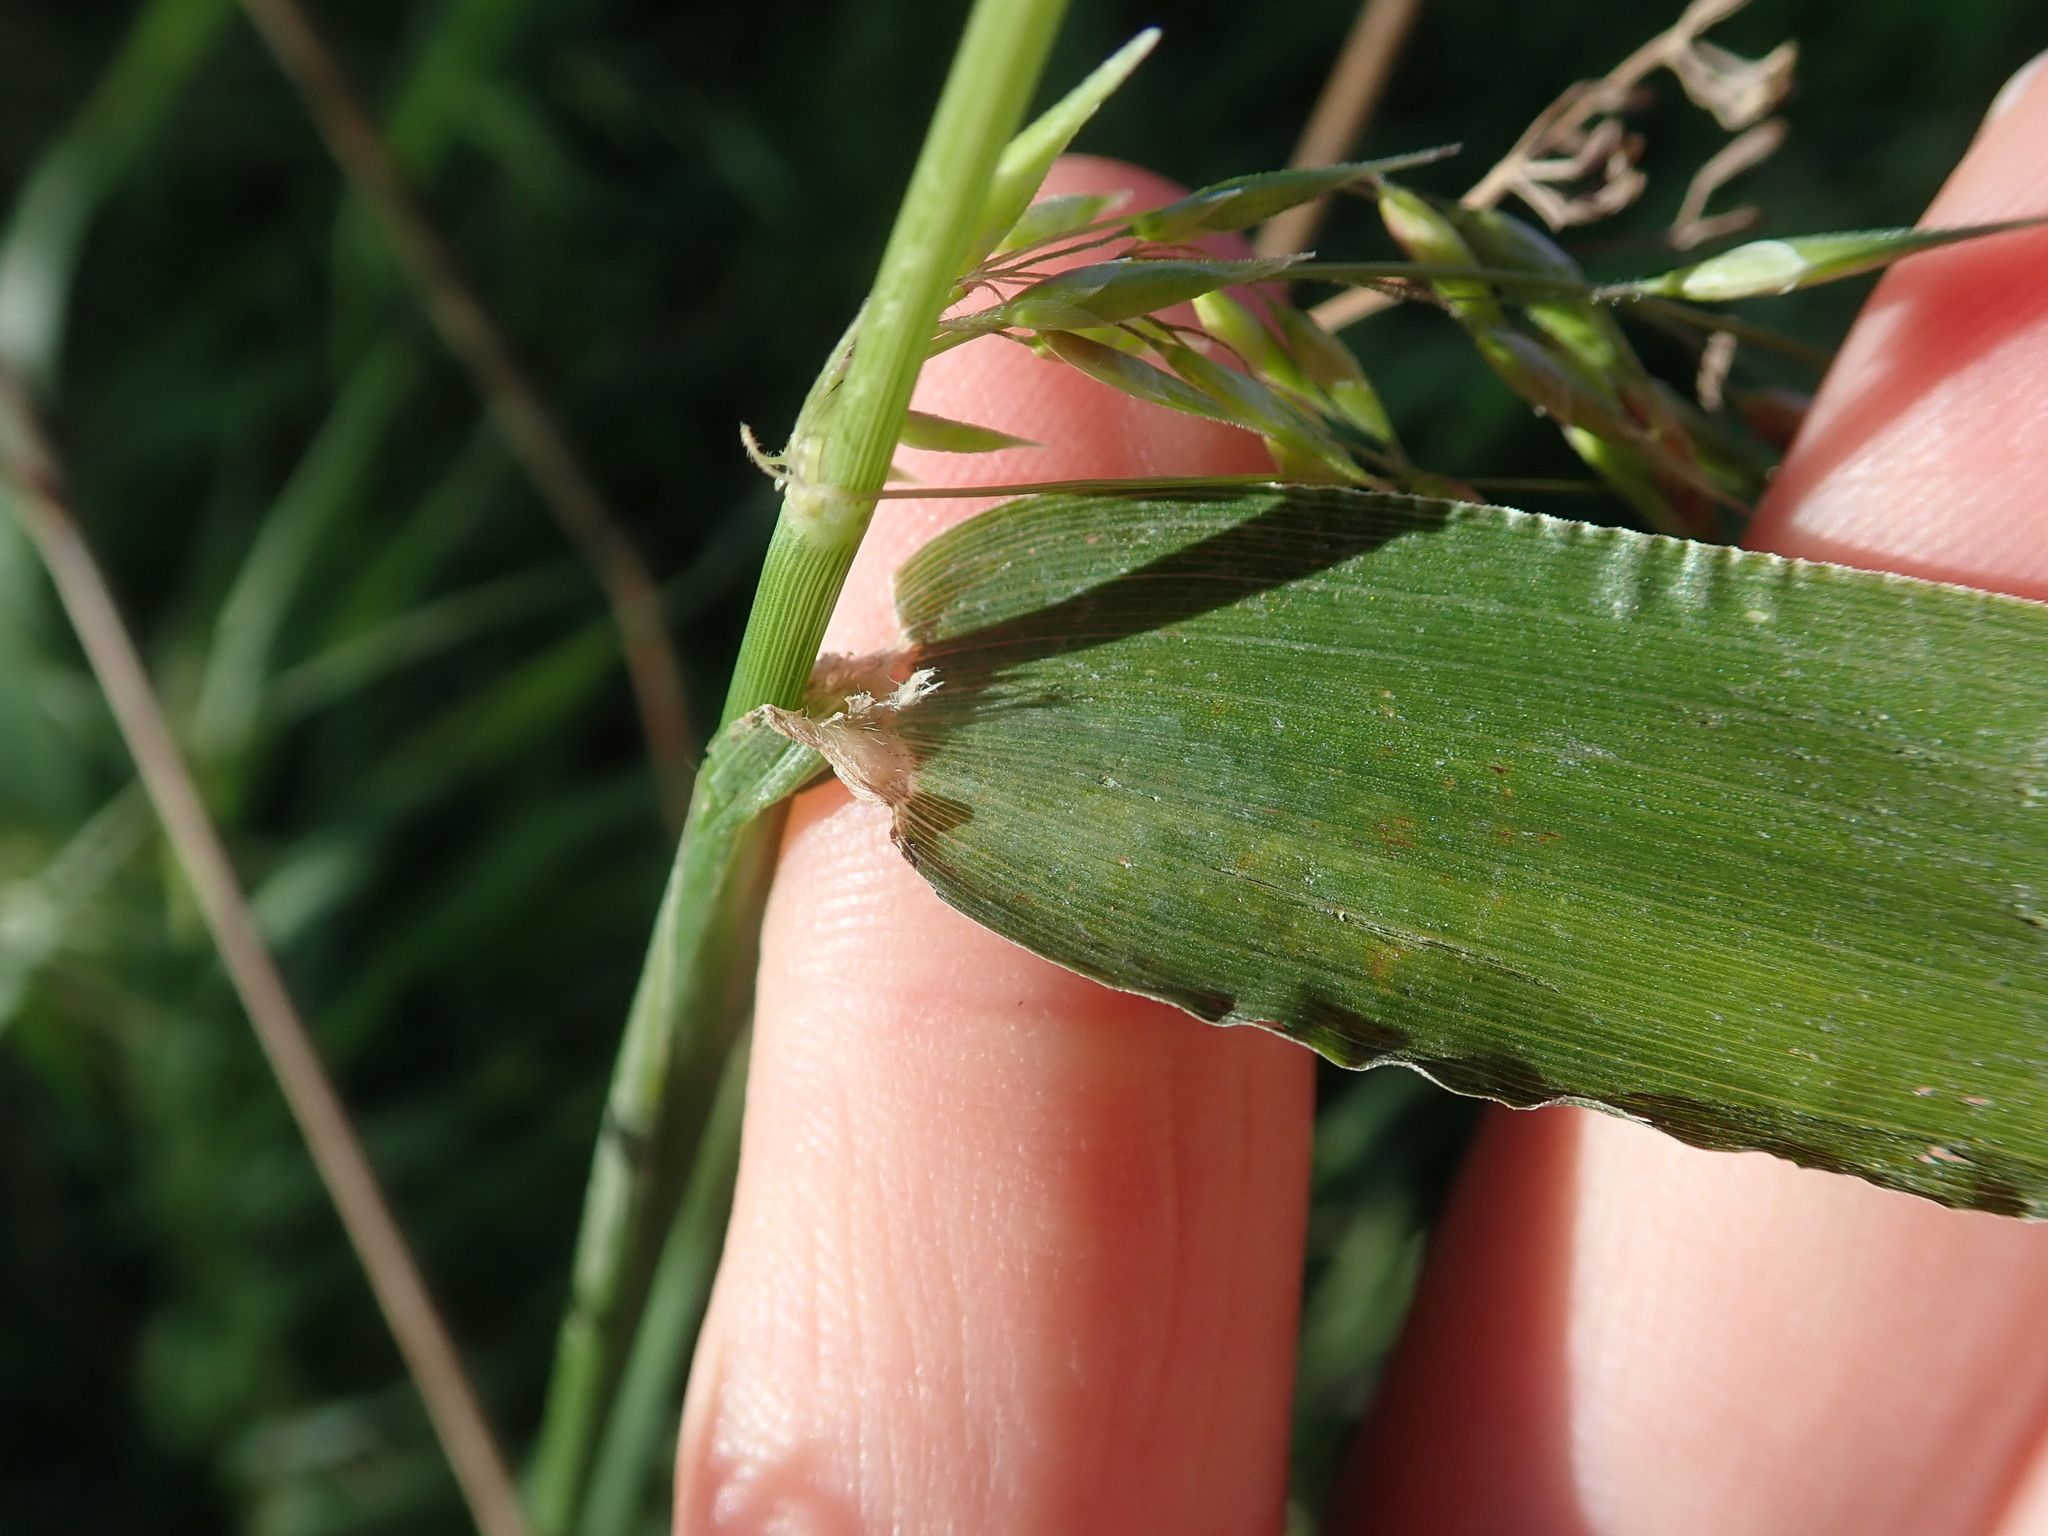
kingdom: Plantae
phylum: Tracheophyta
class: Liliopsida
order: Poales
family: Poaceae
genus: Ehrharta
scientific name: Ehrharta longiflora
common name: Longflowered veldtgrass
